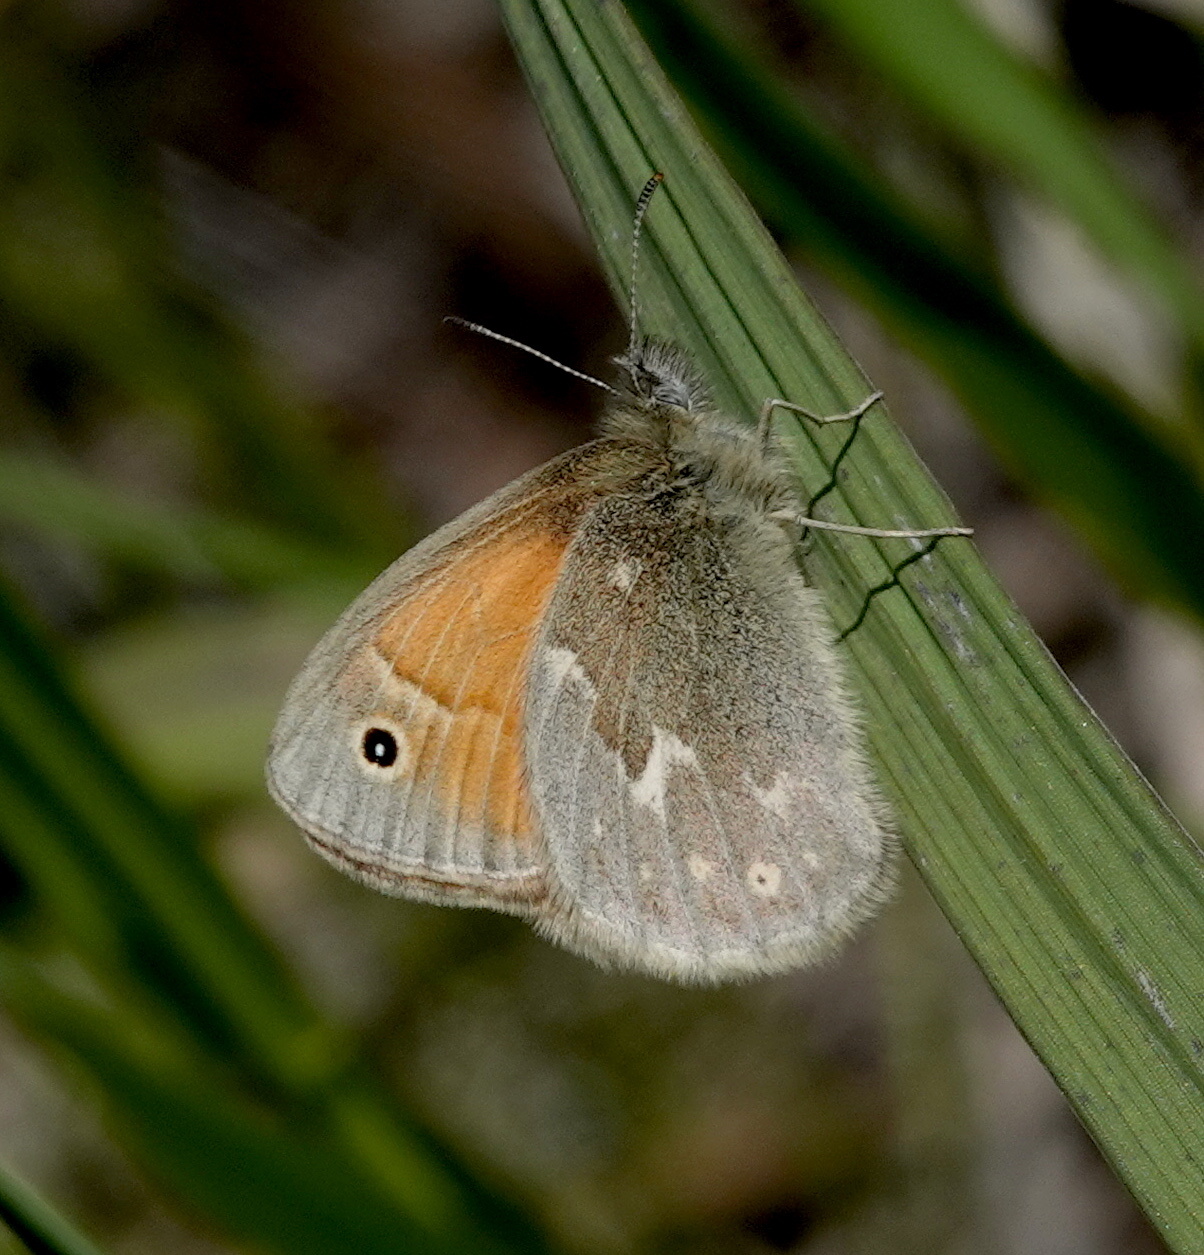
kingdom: Animalia
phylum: Arthropoda
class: Insecta
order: Lepidoptera
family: Nymphalidae
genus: Coenonympha
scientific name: Coenonympha california
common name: Common ringlet
